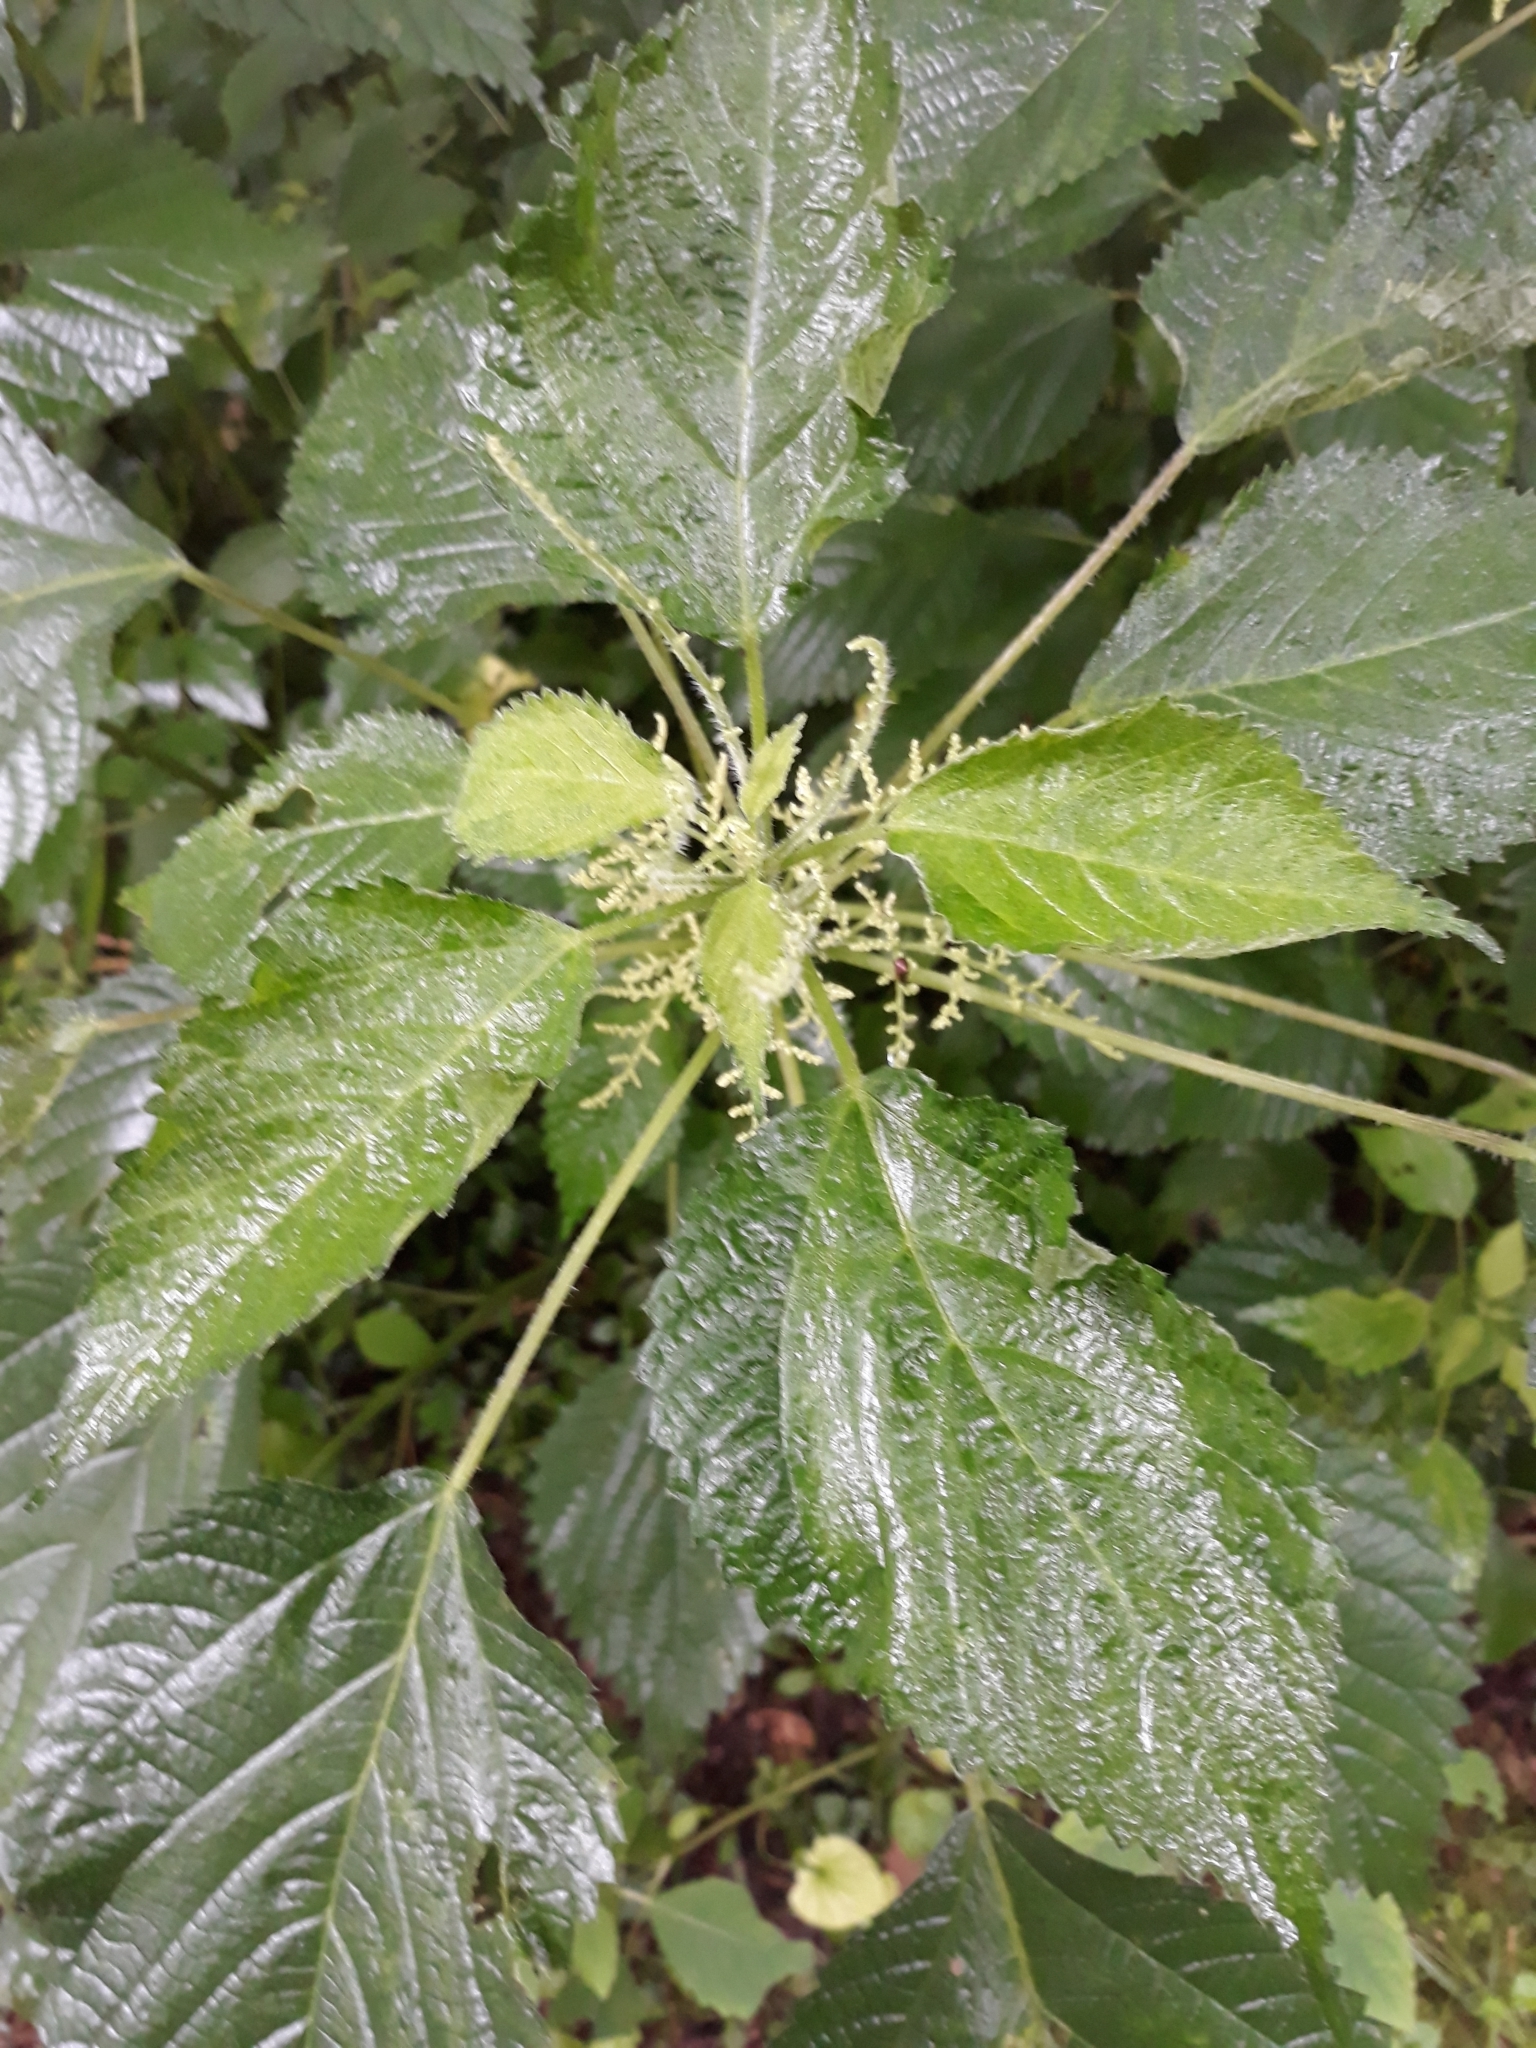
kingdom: Plantae
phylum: Tracheophyta
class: Magnoliopsida
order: Rosales
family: Urticaceae
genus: Laportea
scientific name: Laportea canadensis
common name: Canada nettle
